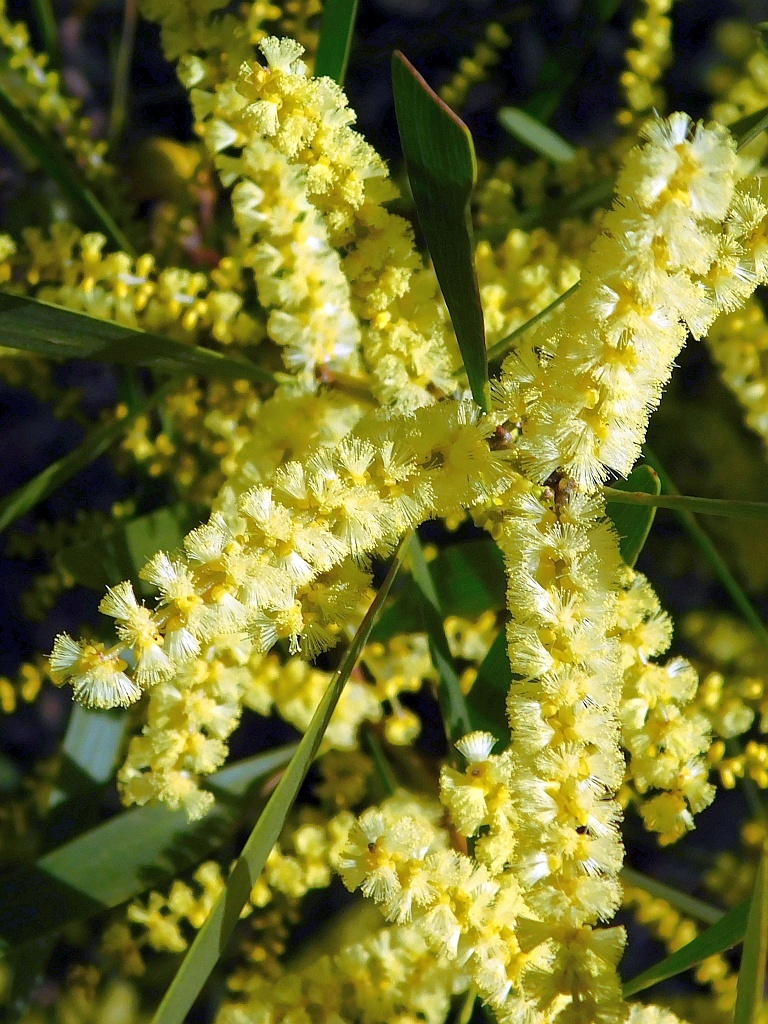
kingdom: Plantae
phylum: Tracheophyta
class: Magnoliopsida
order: Fabales
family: Fabaceae
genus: Acacia
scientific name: Acacia longifolia
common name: Sydney golden wattle
